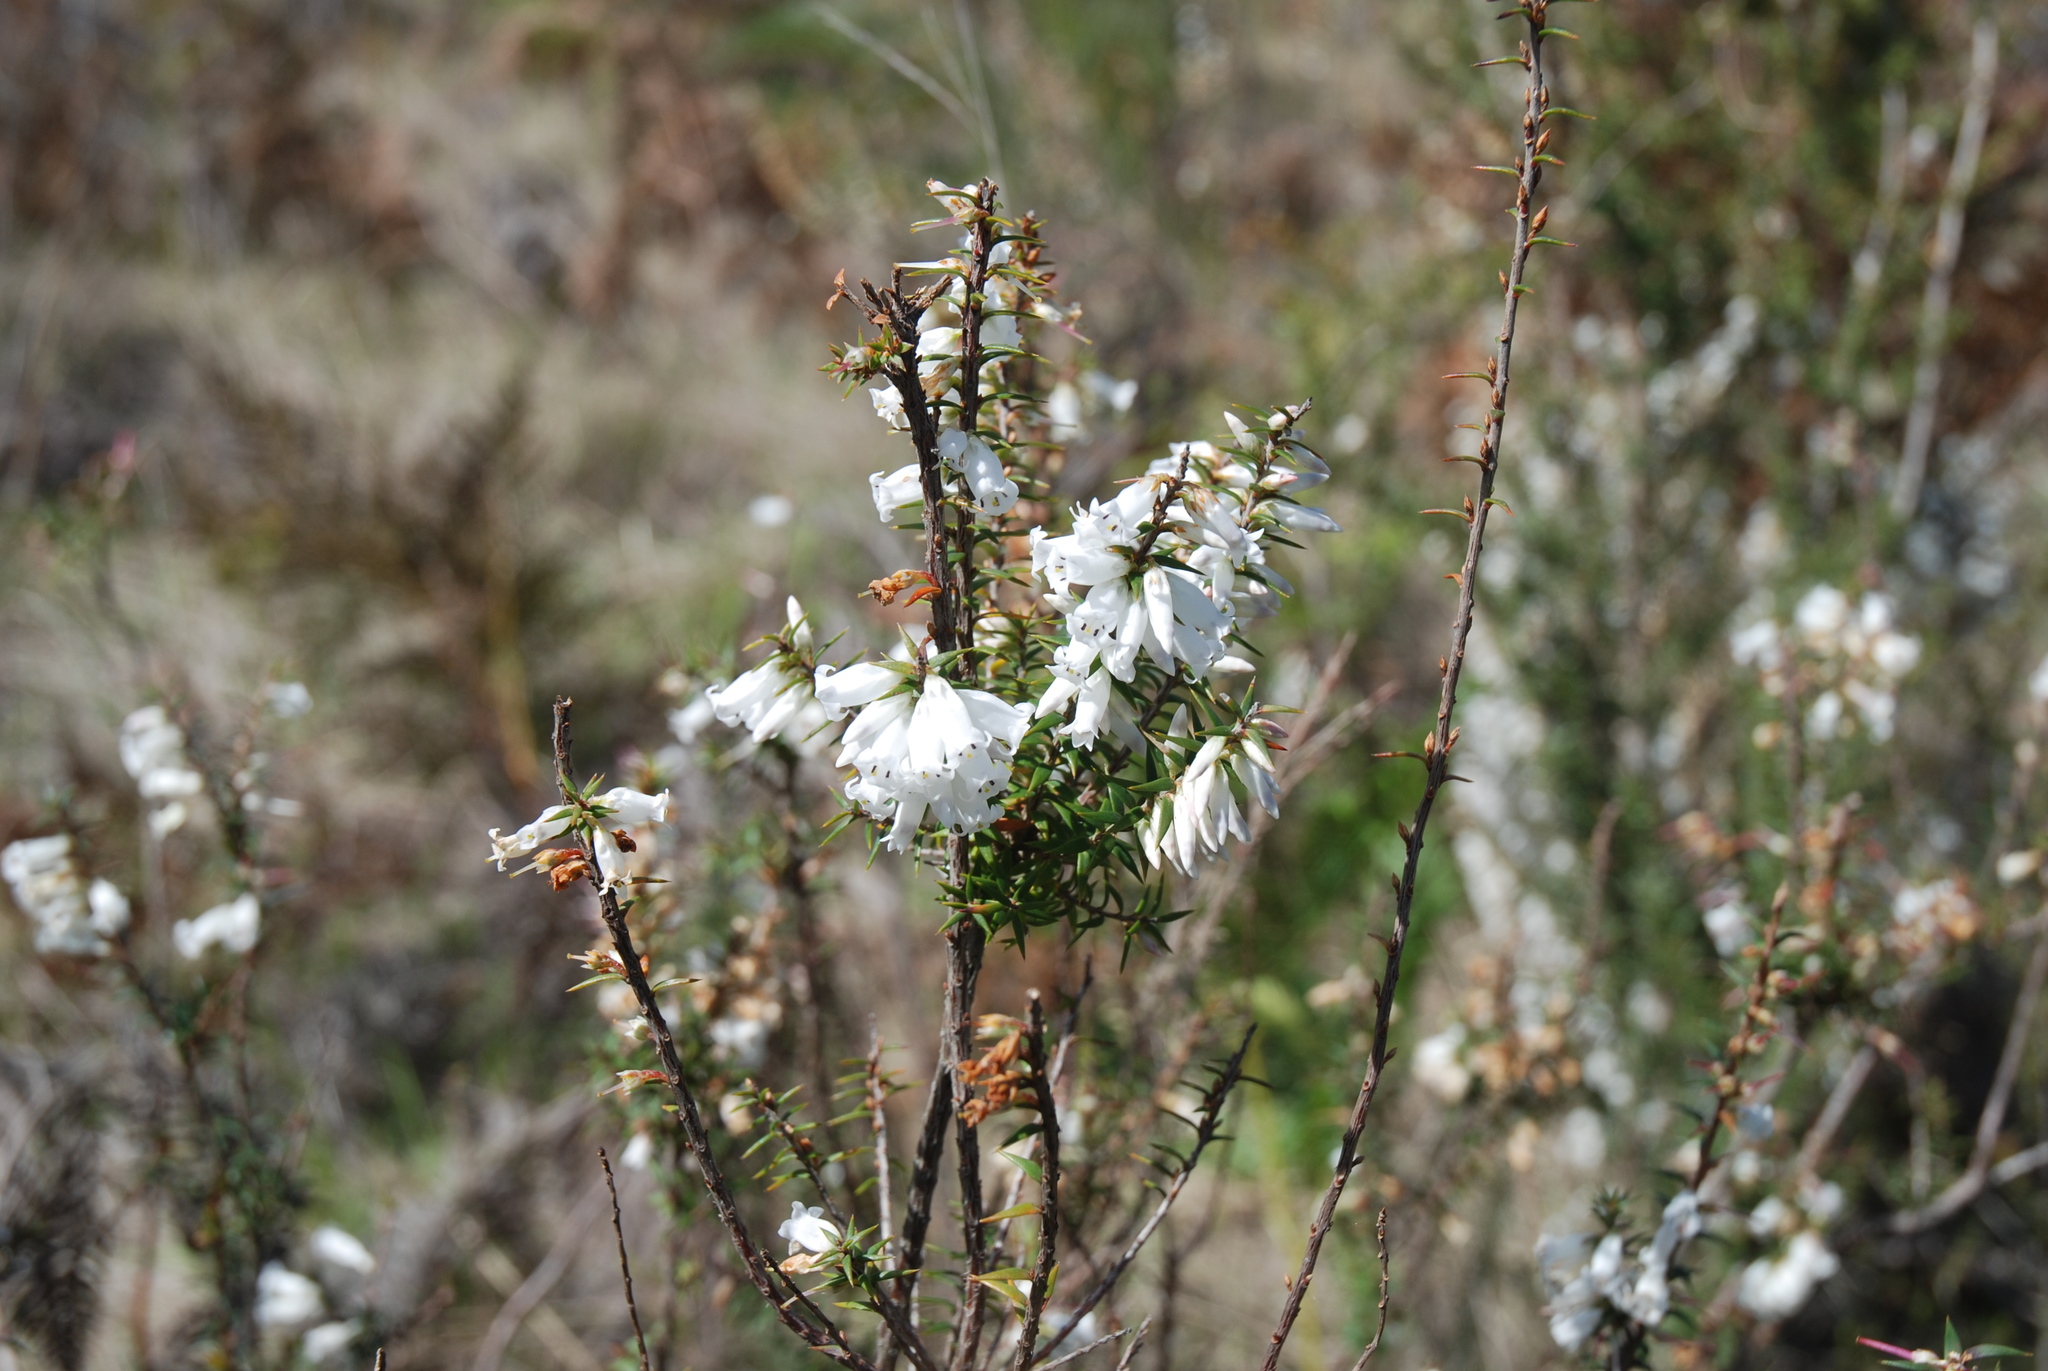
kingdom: Plantae
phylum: Tracheophyta
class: Magnoliopsida
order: Ericales
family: Ericaceae
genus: Epacris
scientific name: Epacris impressa
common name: Common-heath
